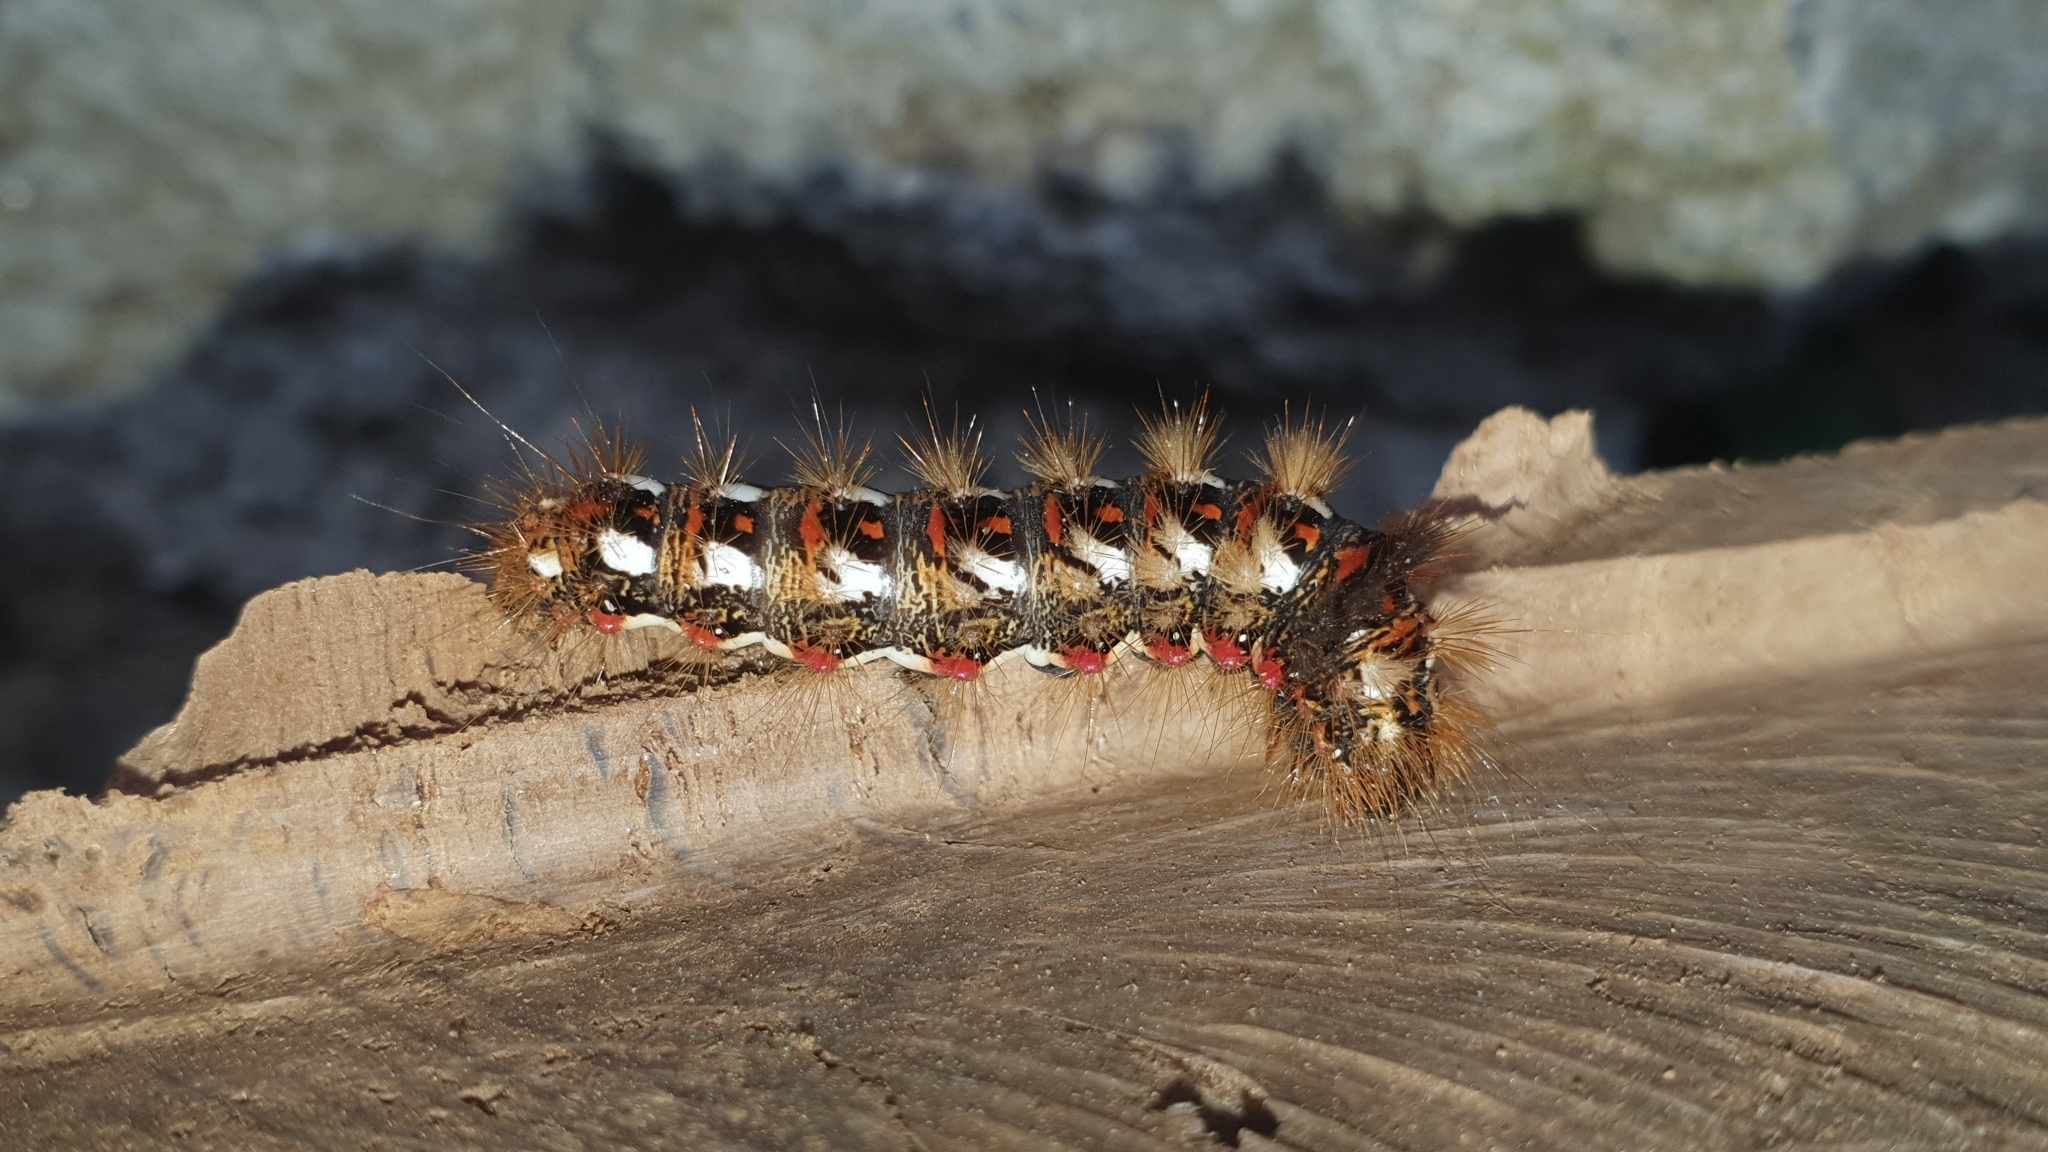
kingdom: Animalia
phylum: Arthropoda
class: Insecta
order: Lepidoptera
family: Noctuidae
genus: Acronicta
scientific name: Acronicta rumicis
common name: Knot grass
